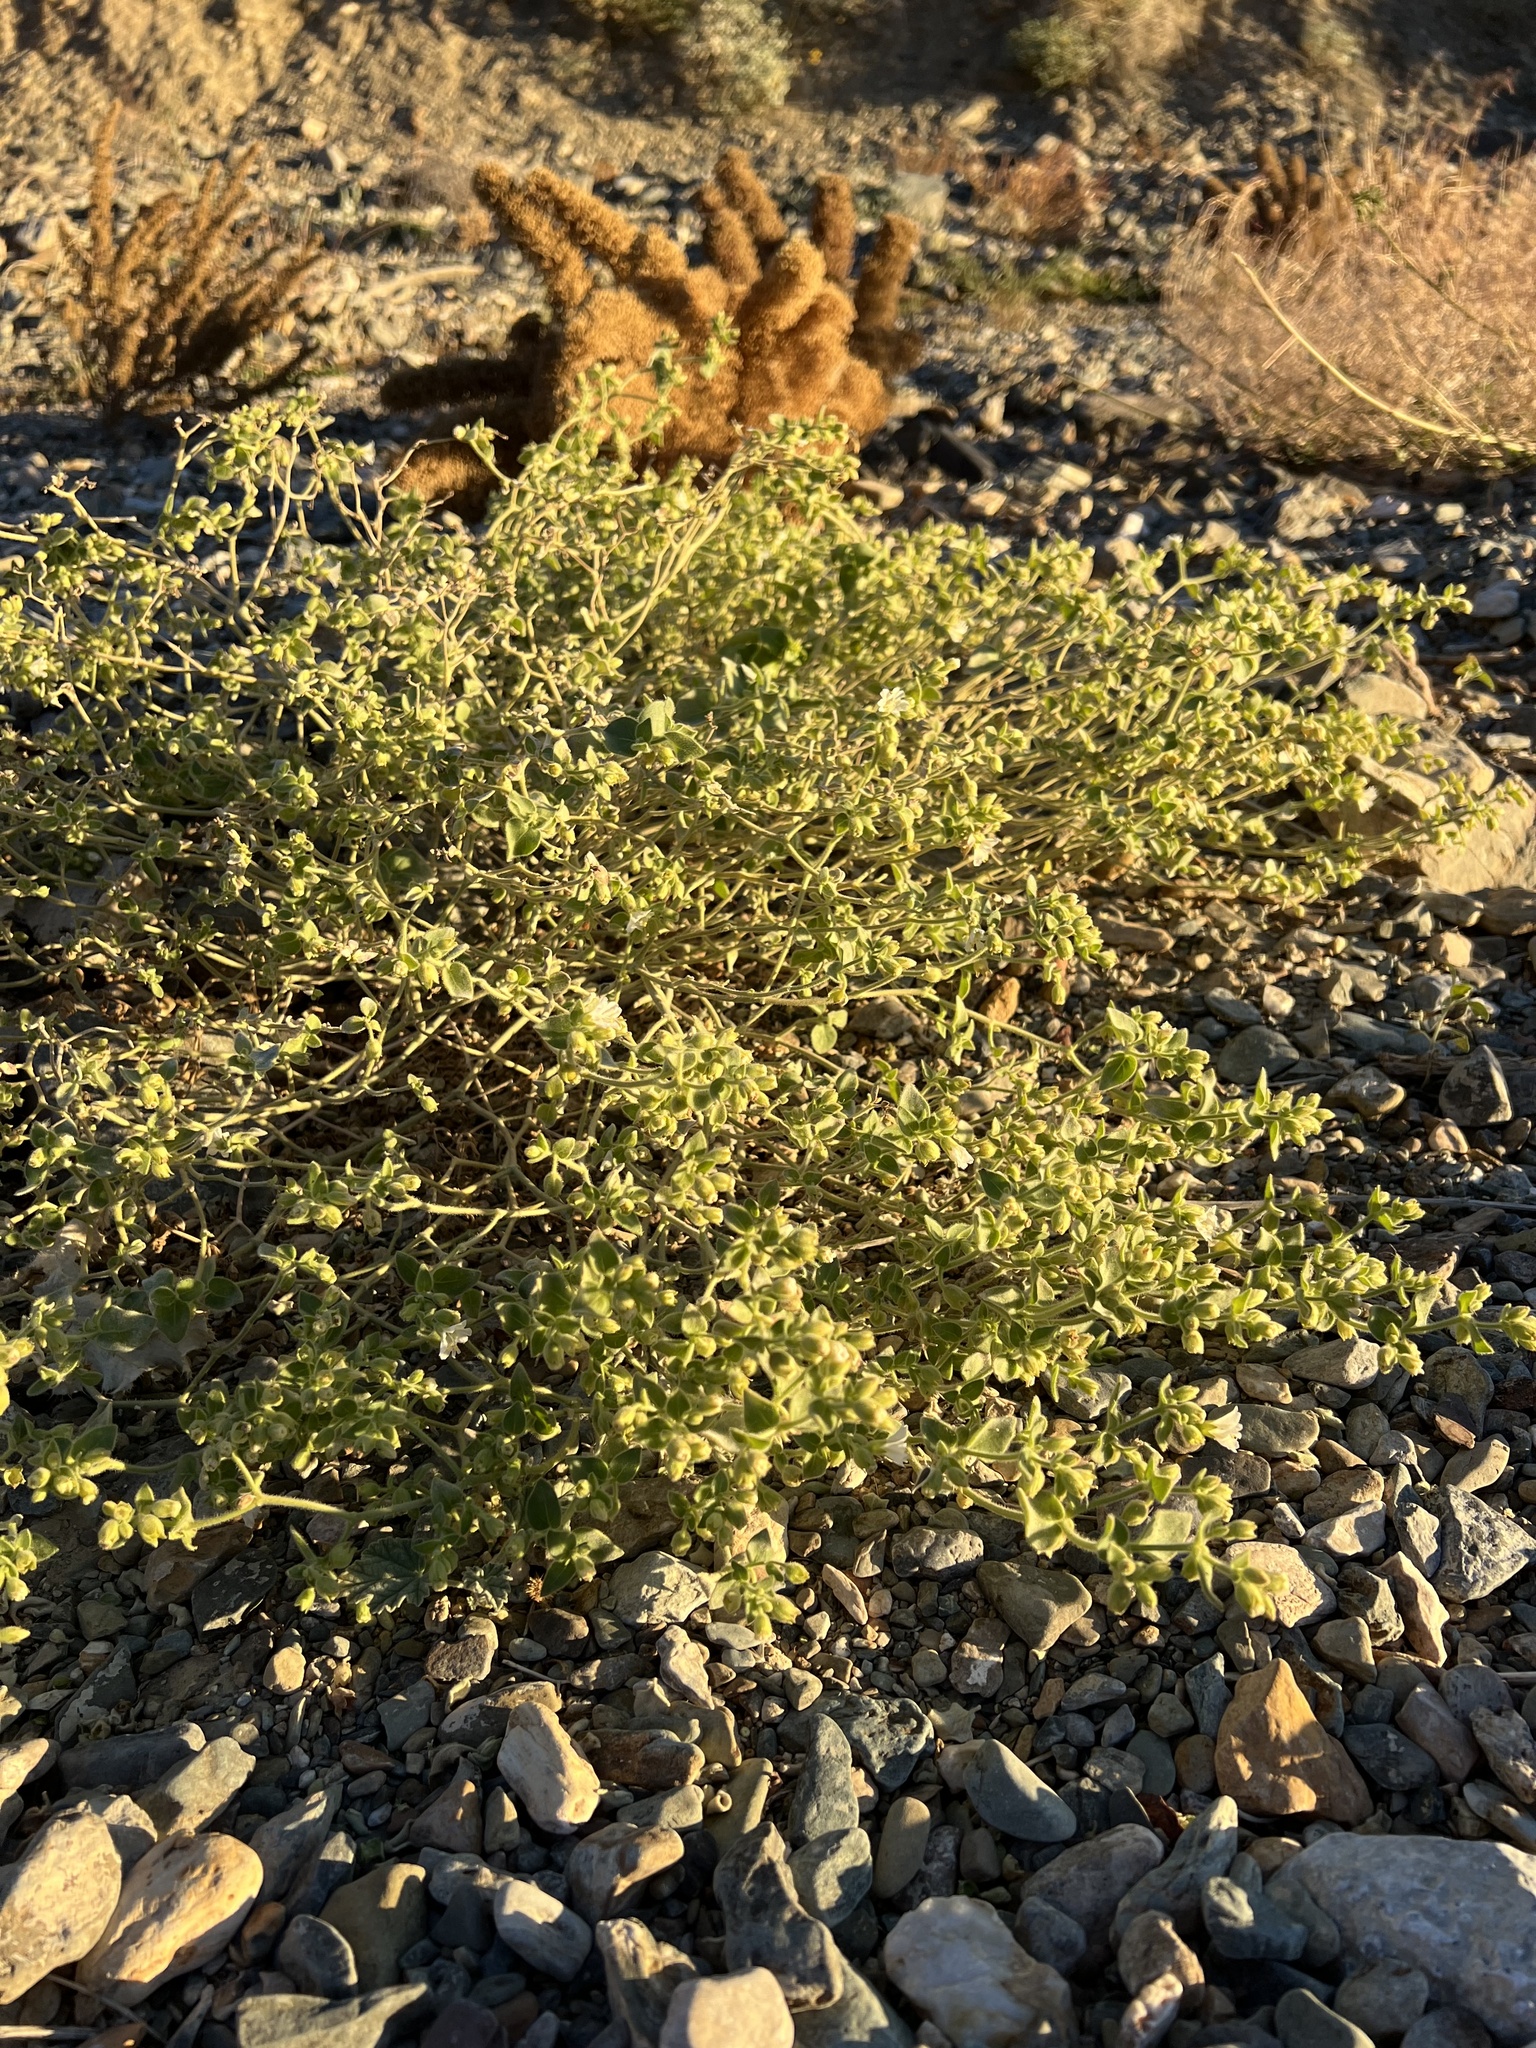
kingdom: Plantae
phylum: Tracheophyta
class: Magnoliopsida
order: Caryophyllales
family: Nyctaginaceae
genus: Mirabilis
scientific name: Mirabilis laevis
